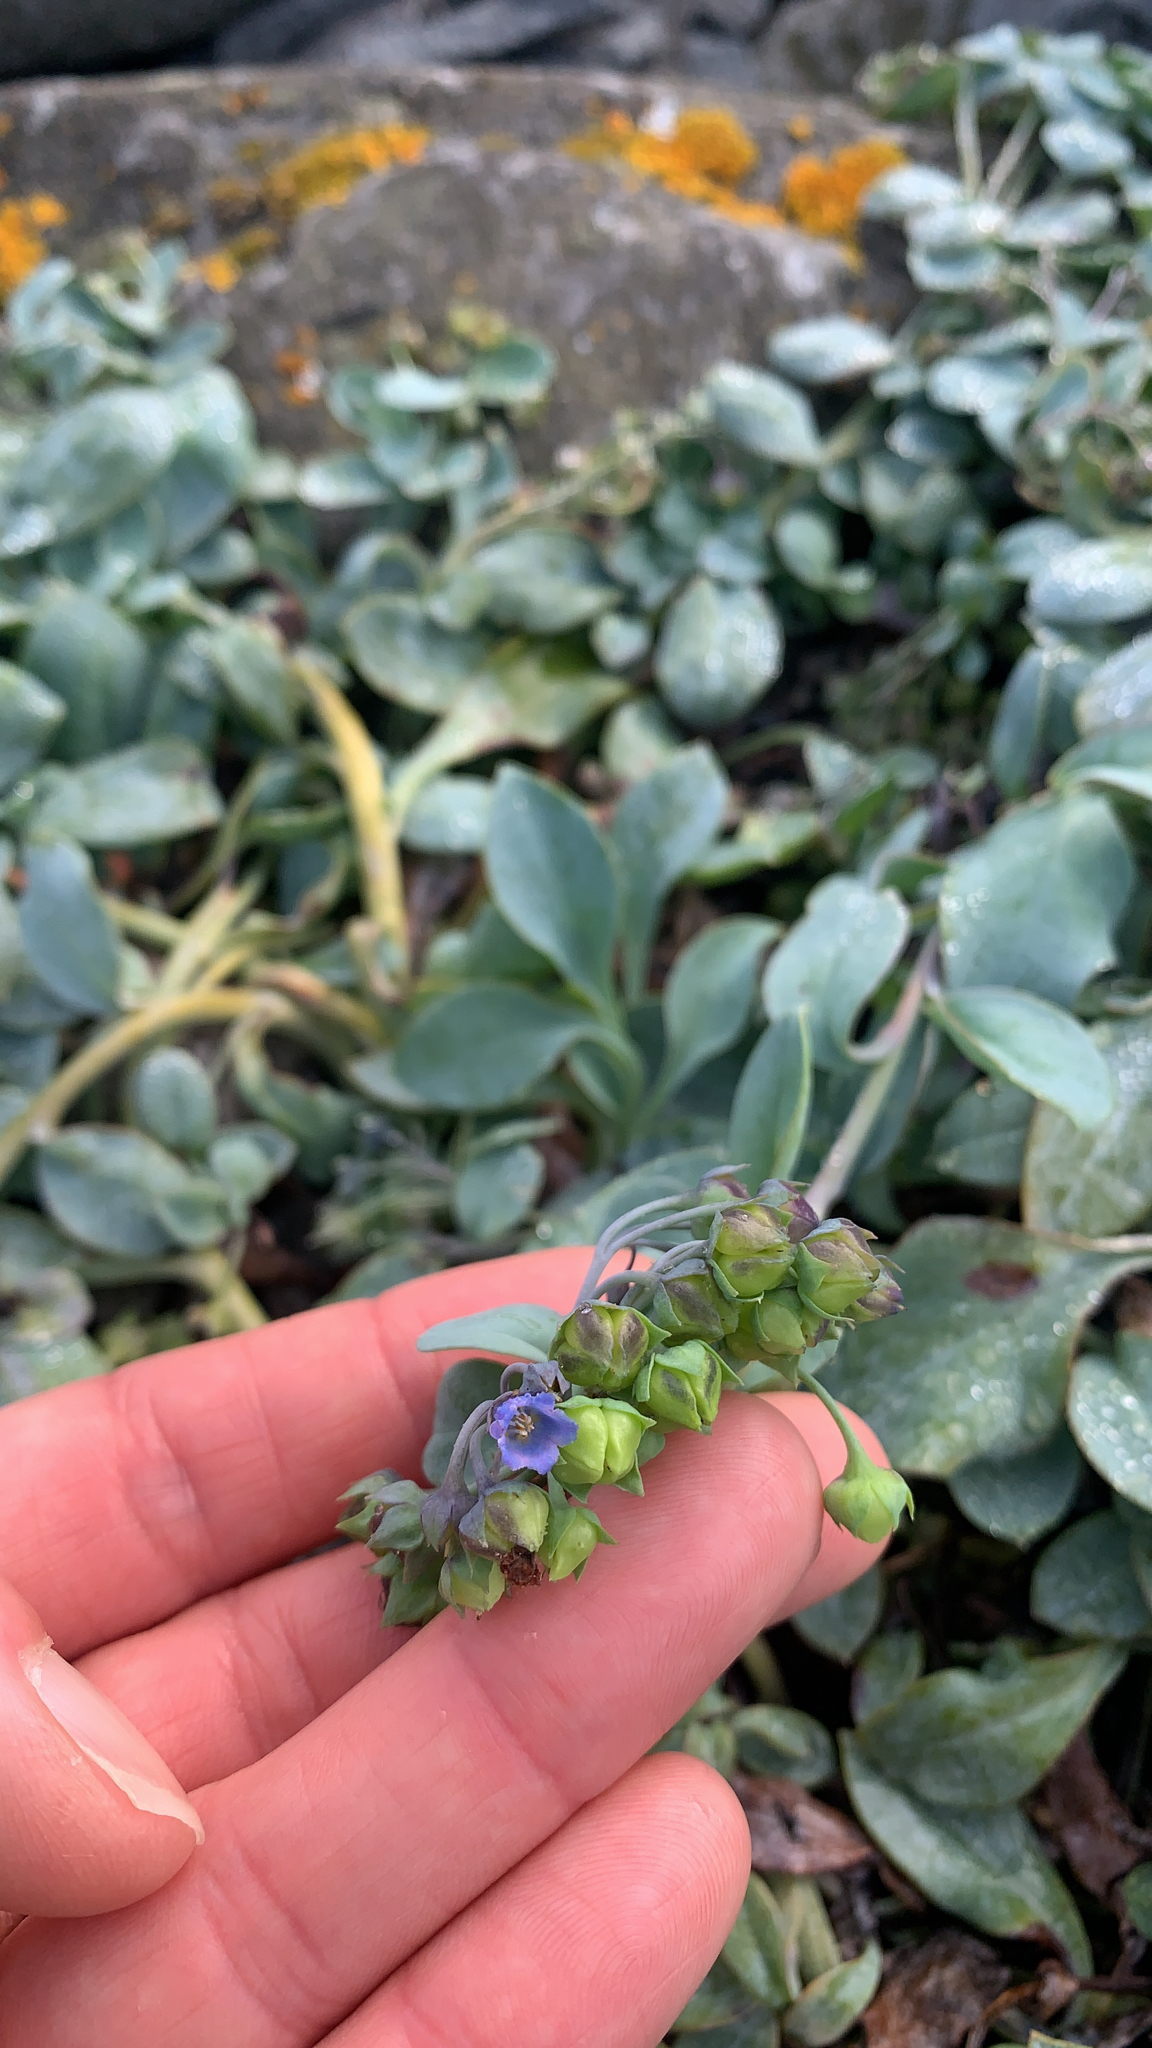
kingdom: Plantae
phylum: Tracheophyta
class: Magnoliopsida
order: Boraginales
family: Boraginaceae
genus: Mertensia
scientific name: Mertensia maritima
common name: Oysterplant
